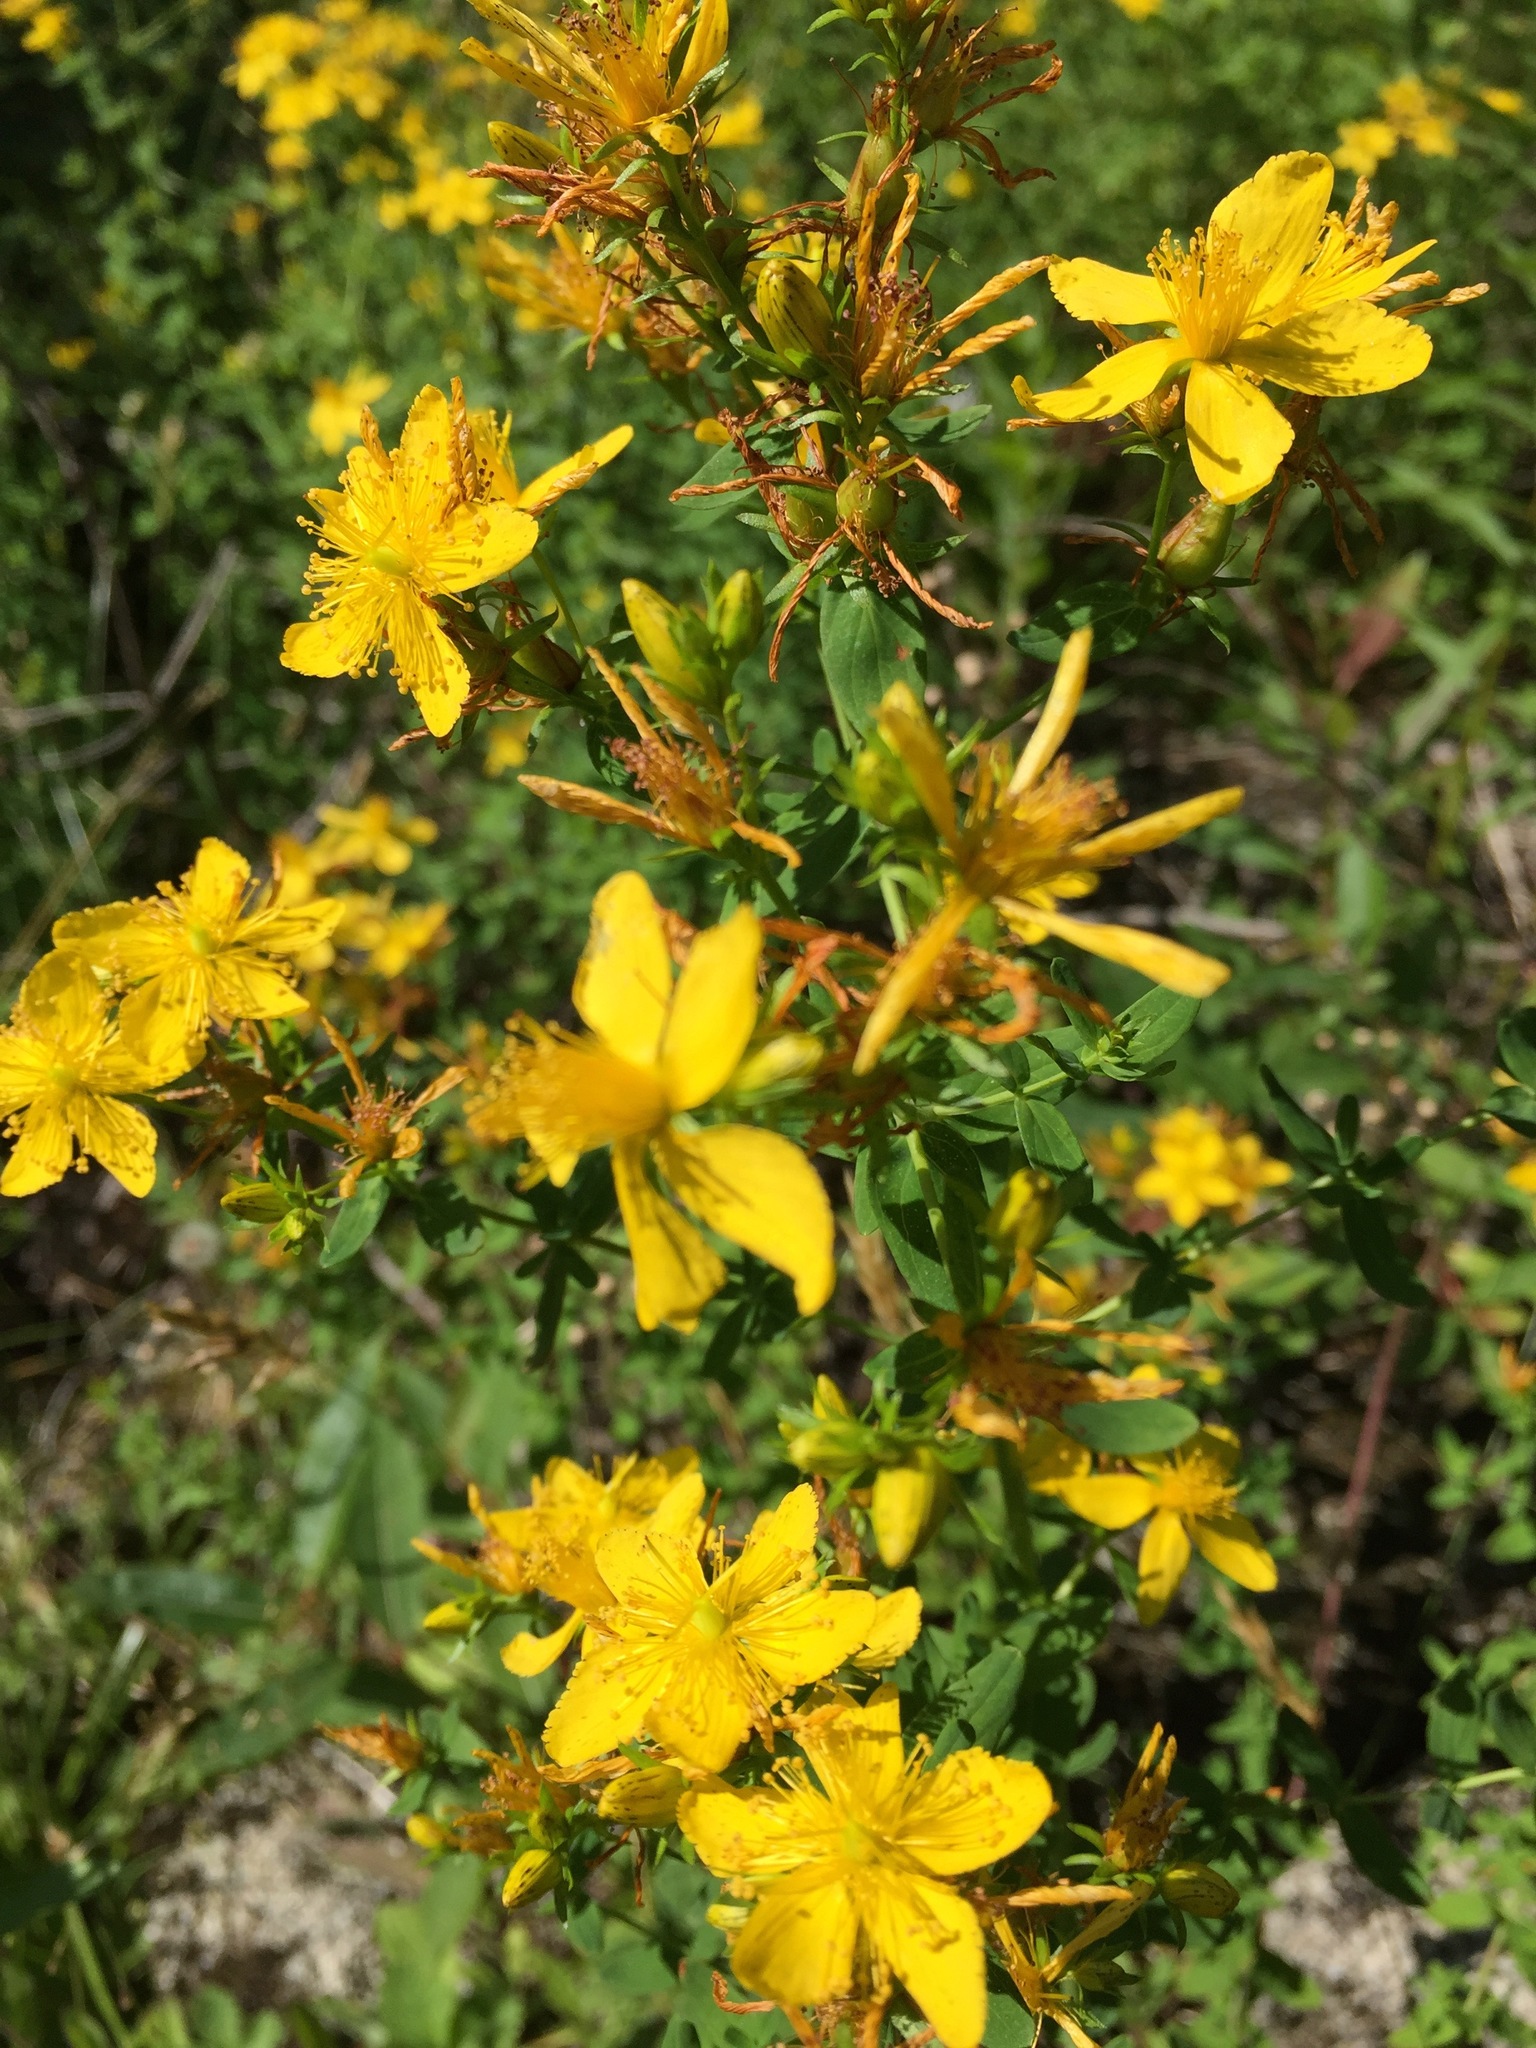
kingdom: Plantae
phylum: Tracheophyta
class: Magnoliopsida
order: Malpighiales
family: Hypericaceae
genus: Hypericum
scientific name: Hypericum perforatum
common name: Common st. johnswort
